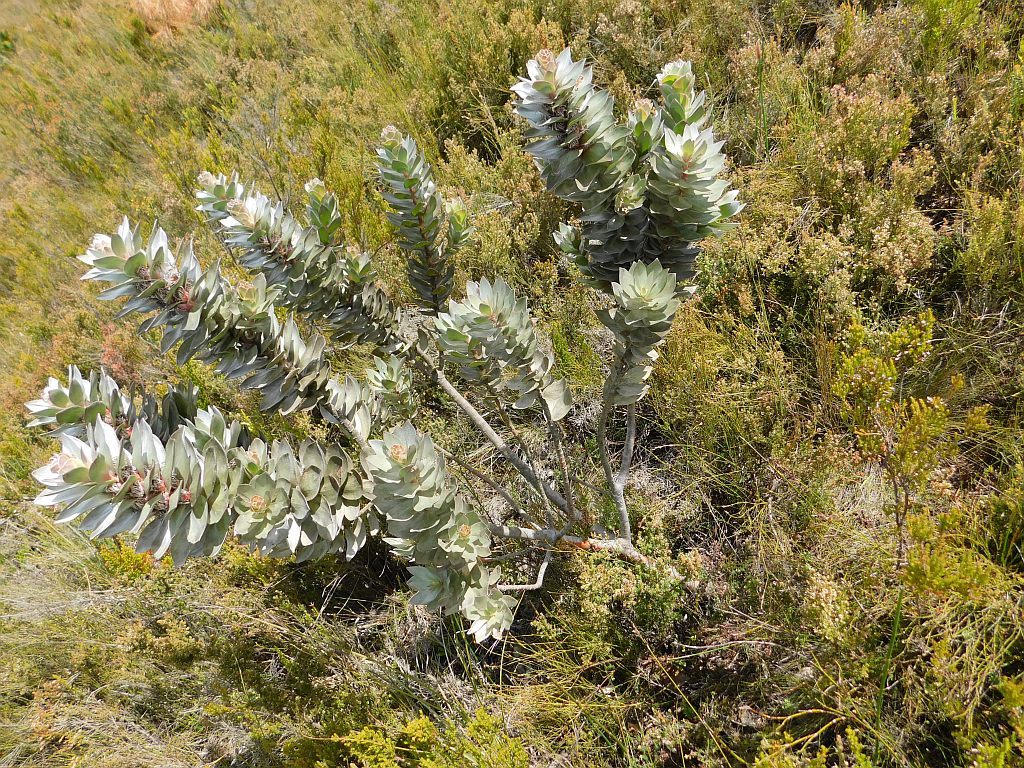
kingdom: Plantae
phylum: Tracheophyta
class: Magnoliopsida
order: Proteales
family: Proteaceae
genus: Mimetes
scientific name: Mimetes argenteus
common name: Silver pagoda
